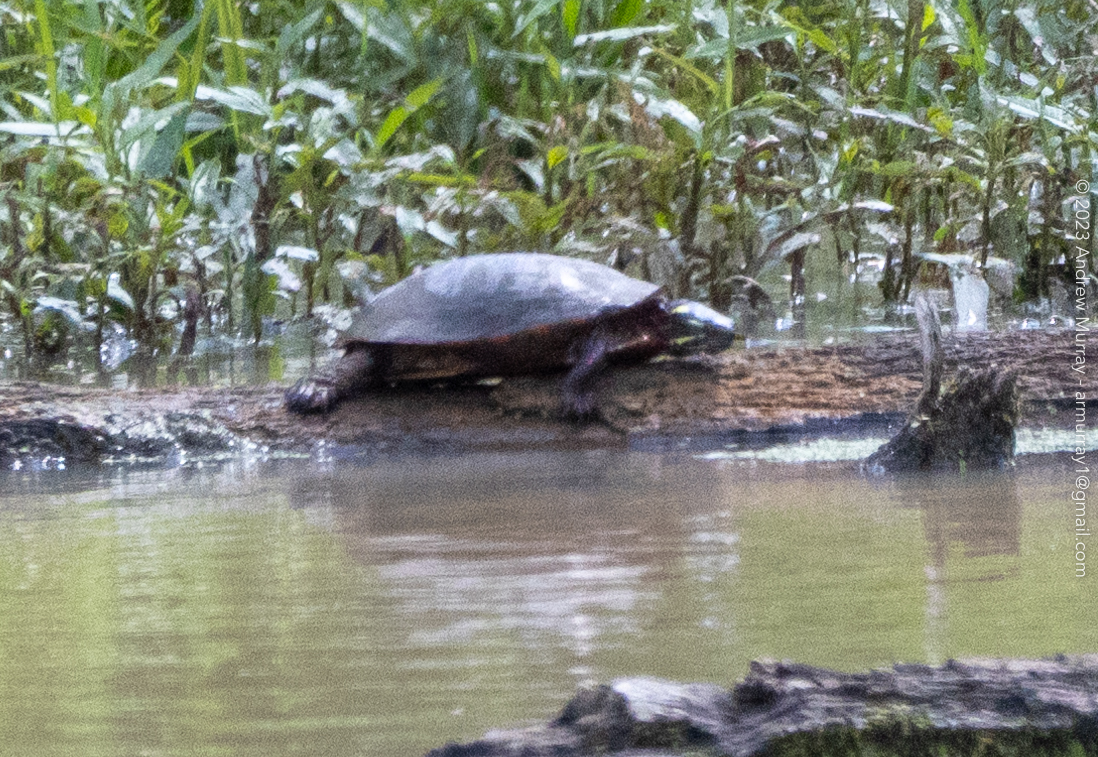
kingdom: Animalia
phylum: Chordata
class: Testudines
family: Emydidae
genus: Chrysemys
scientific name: Chrysemys picta
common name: Painted turtle
